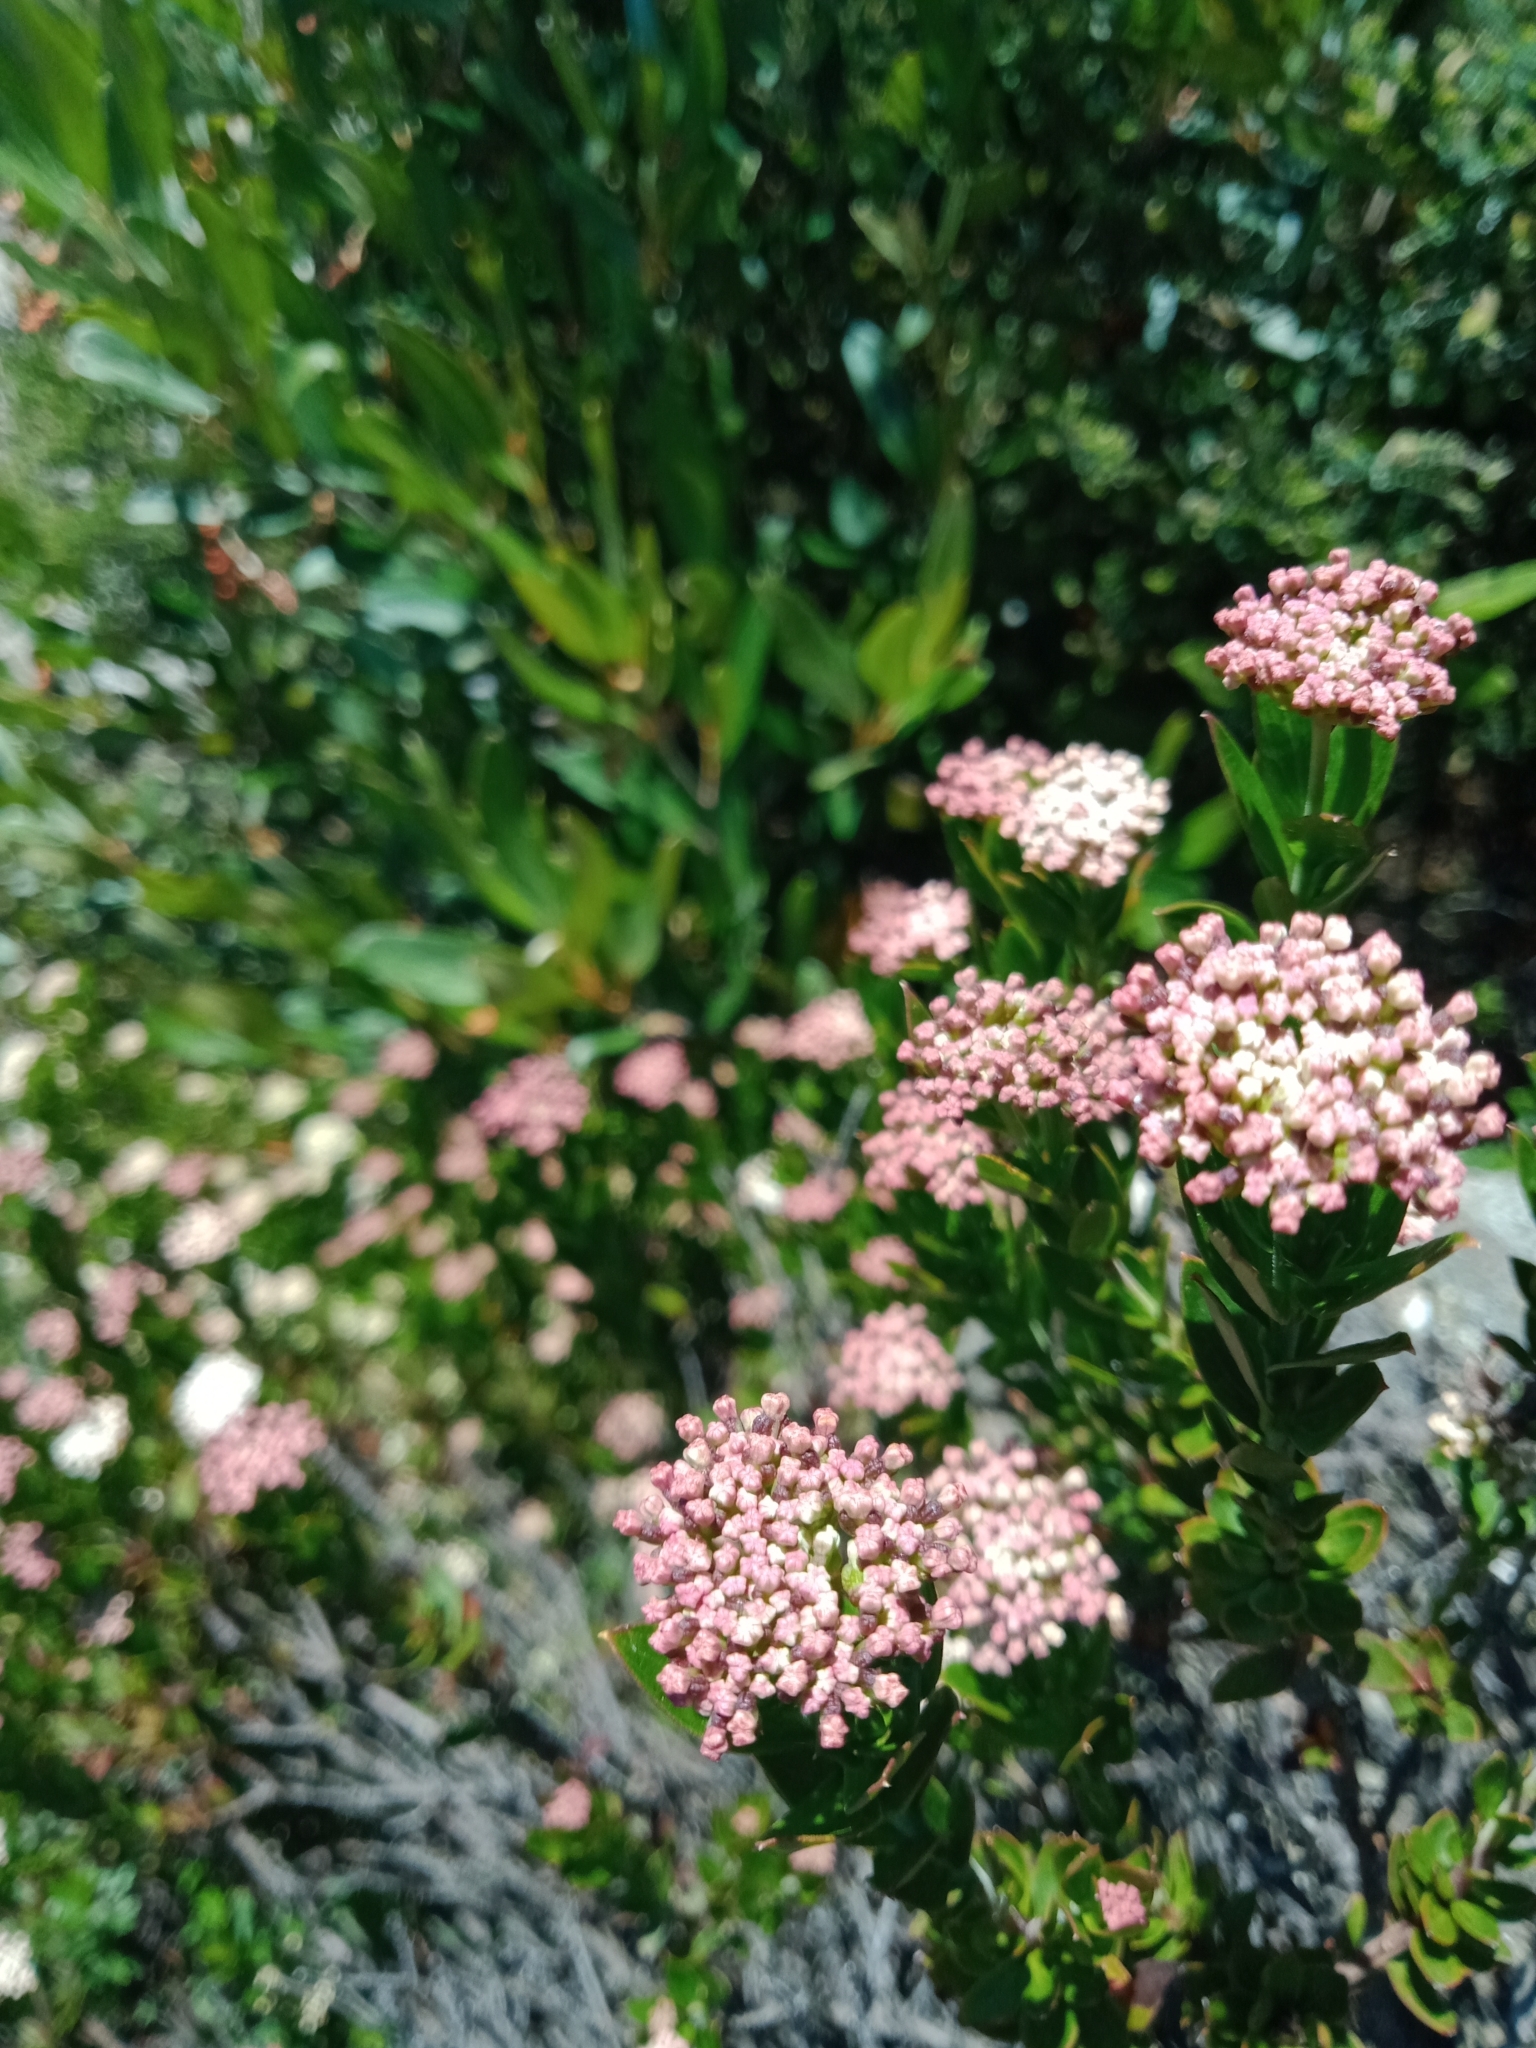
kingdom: Plantae
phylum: Tracheophyta
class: Magnoliopsida
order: Apiales
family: Apiaceae
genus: Platysace
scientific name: Platysace lanceolata
